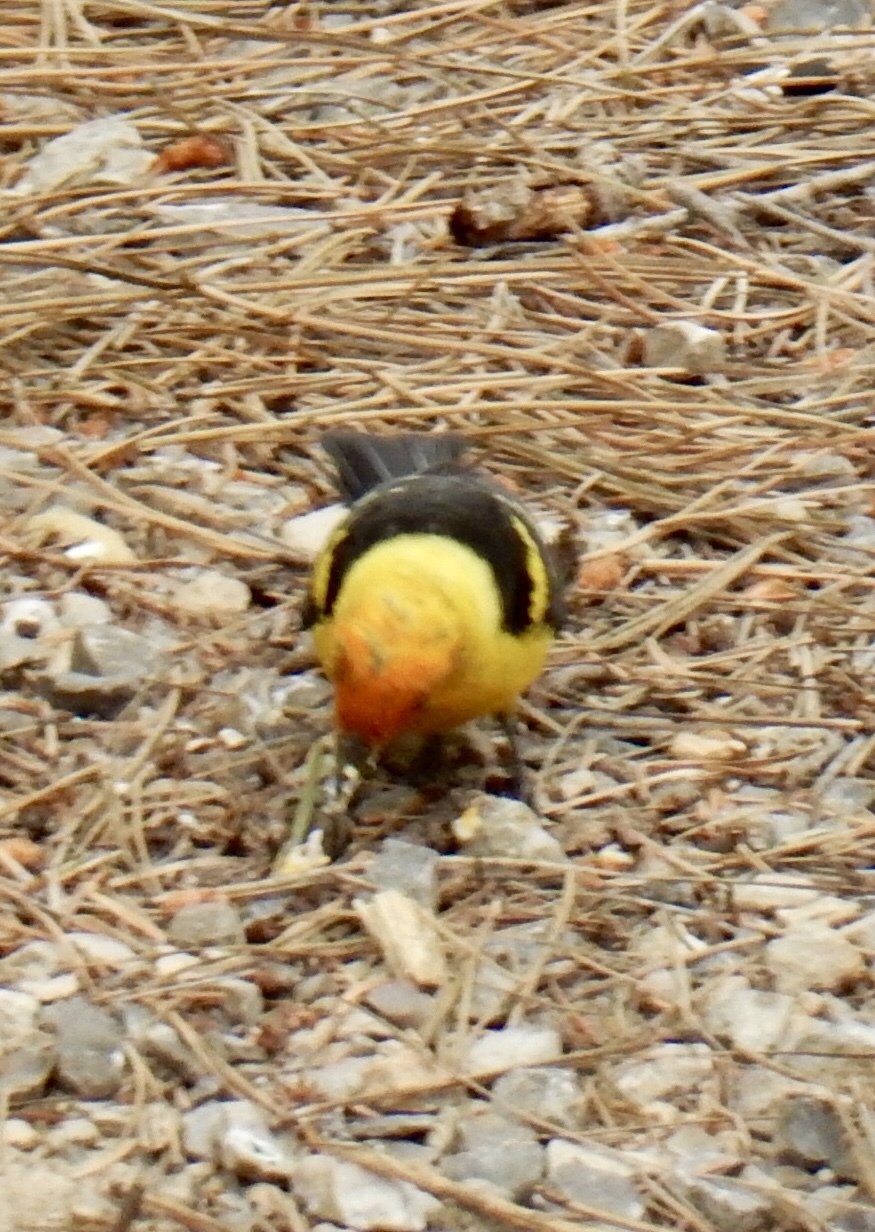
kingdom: Animalia
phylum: Chordata
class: Aves
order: Passeriformes
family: Cardinalidae
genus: Piranga
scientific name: Piranga ludoviciana
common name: Western tanager
